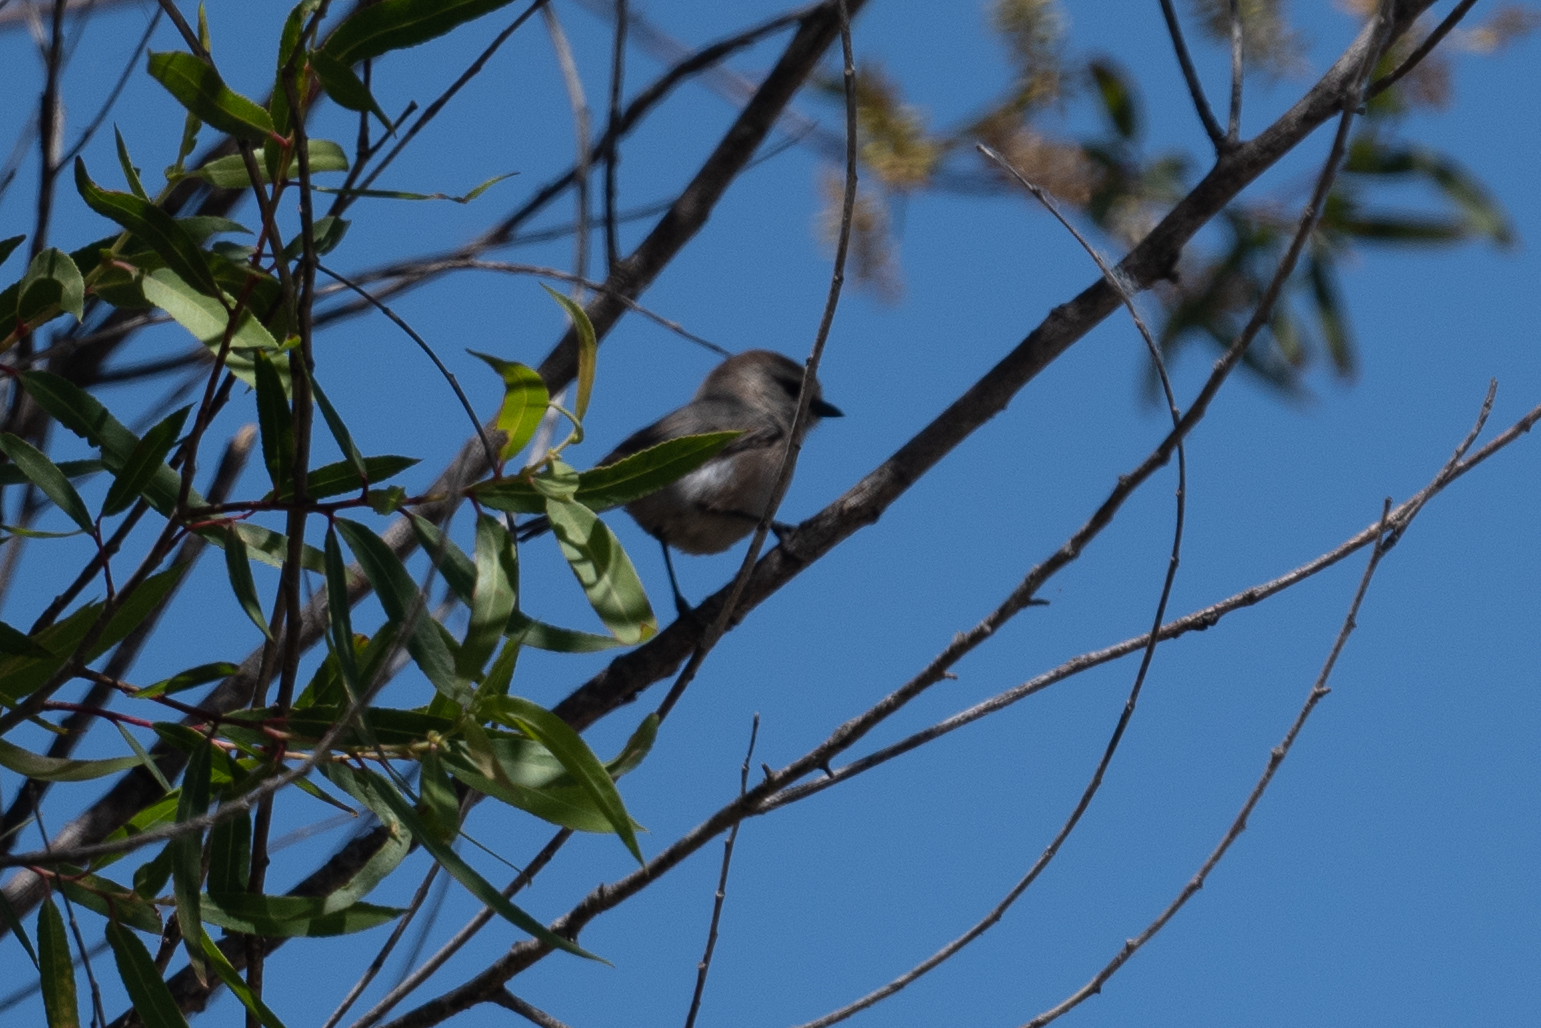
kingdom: Animalia
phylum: Chordata
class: Aves
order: Passeriformes
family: Aegithalidae
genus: Psaltriparus
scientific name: Psaltriparus minimus
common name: American bushtit
